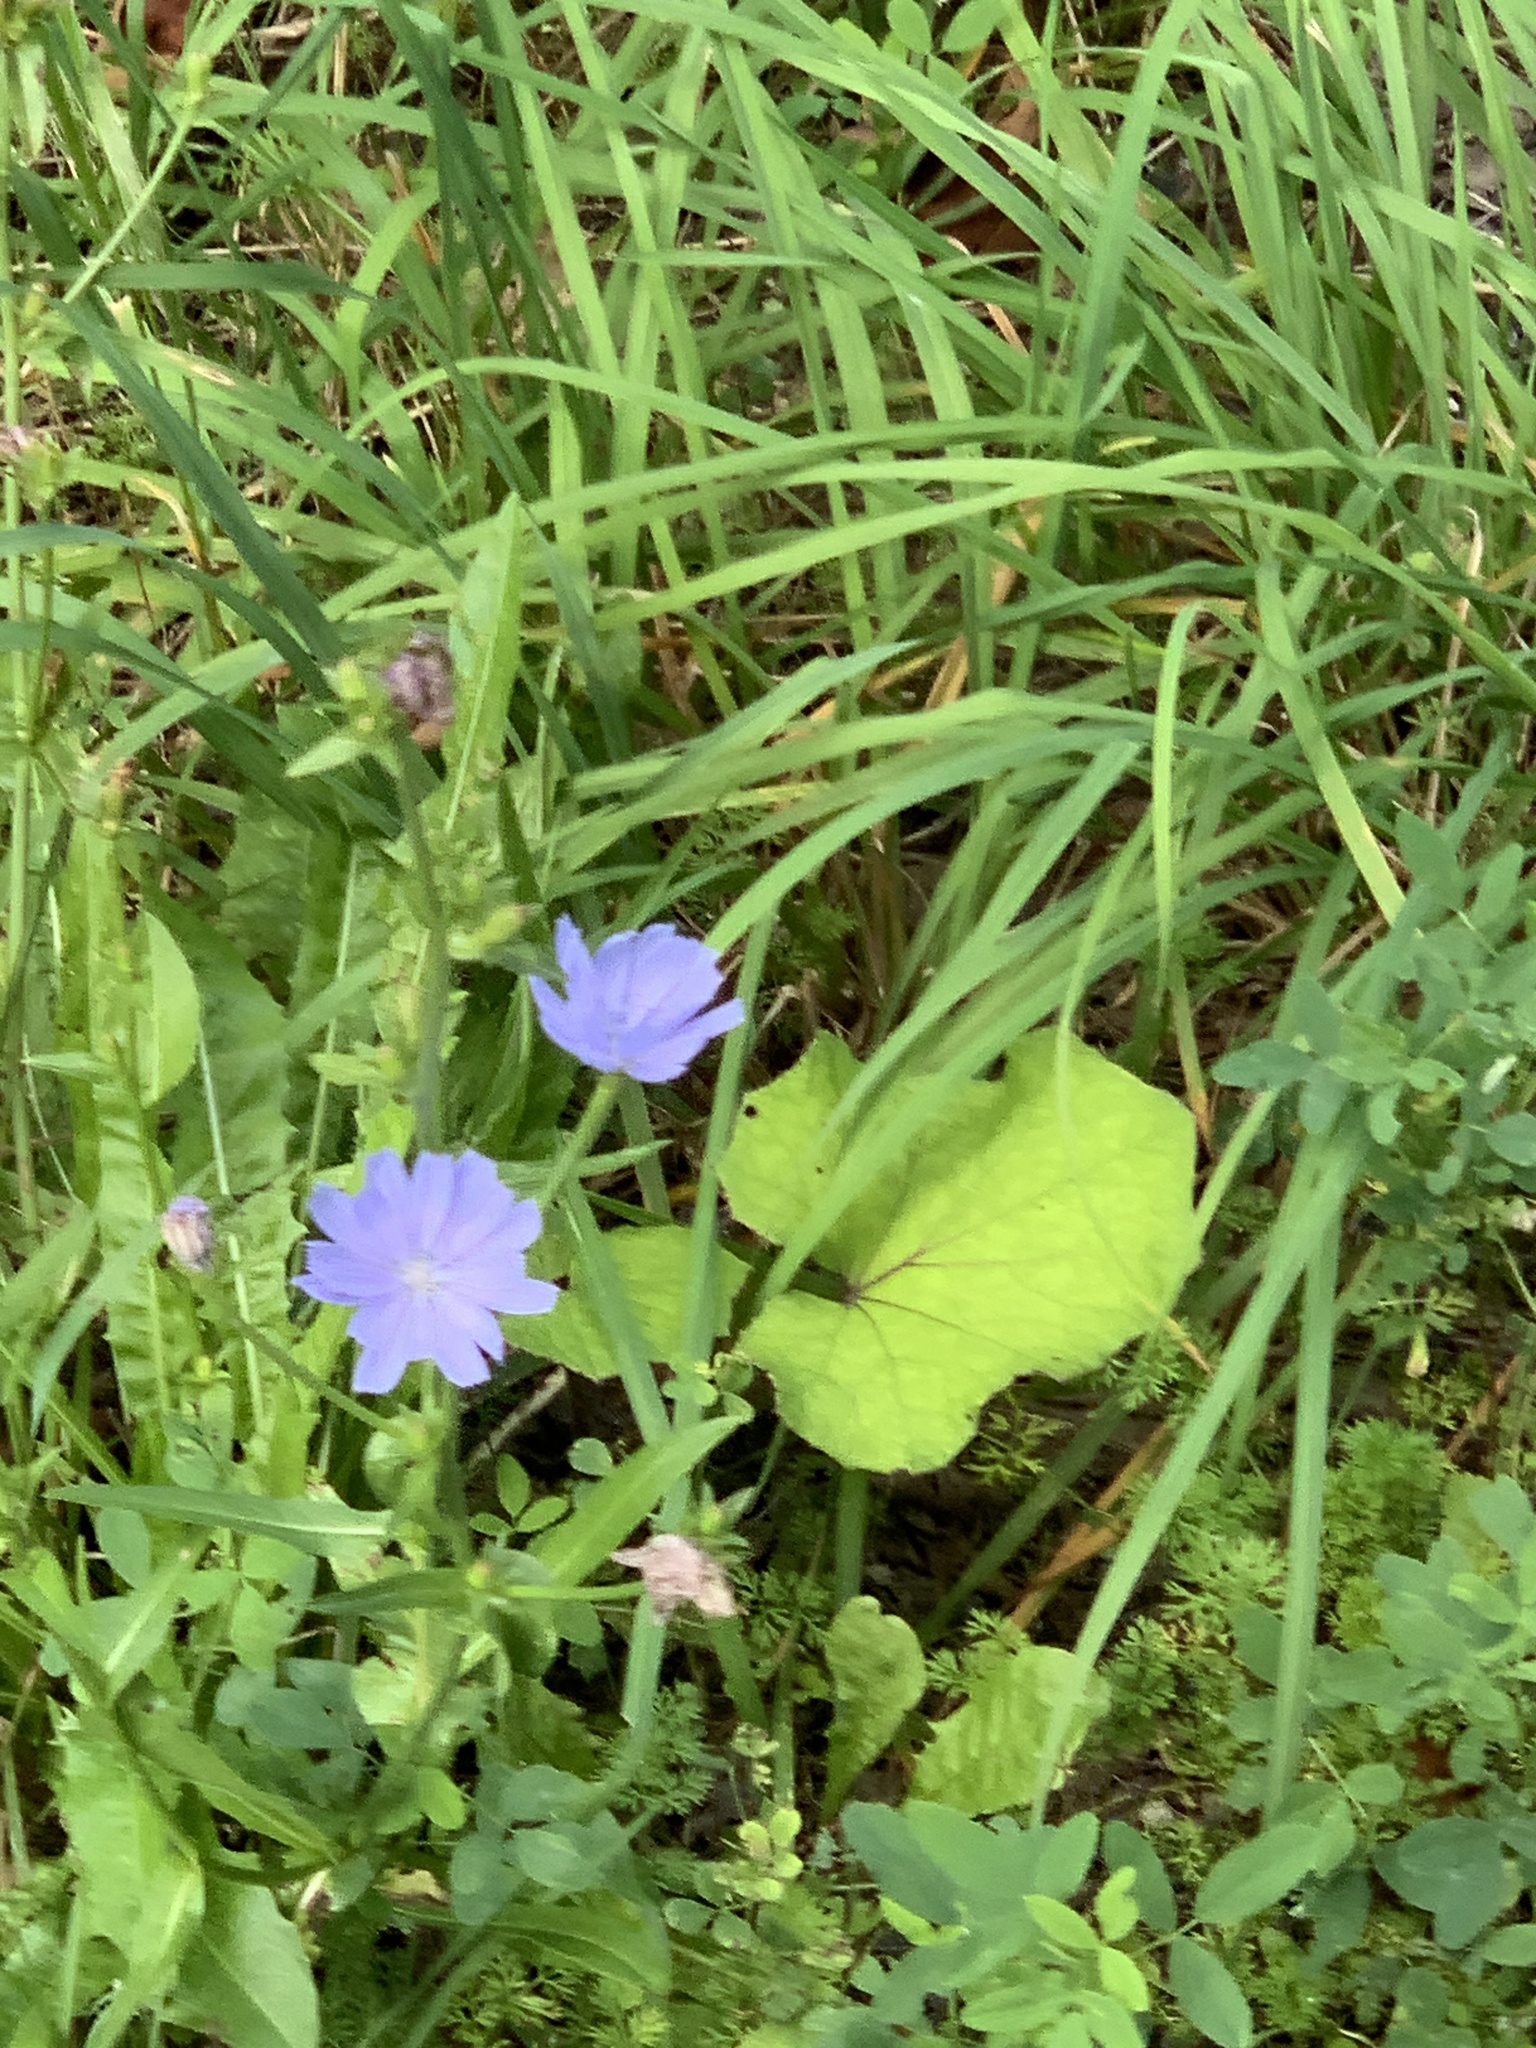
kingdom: Plantae
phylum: Tracheophyta
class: Magnoliopsida
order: Asterales
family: Asteraceae
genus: Cichorium
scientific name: Cichorium intybus
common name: Chicory
